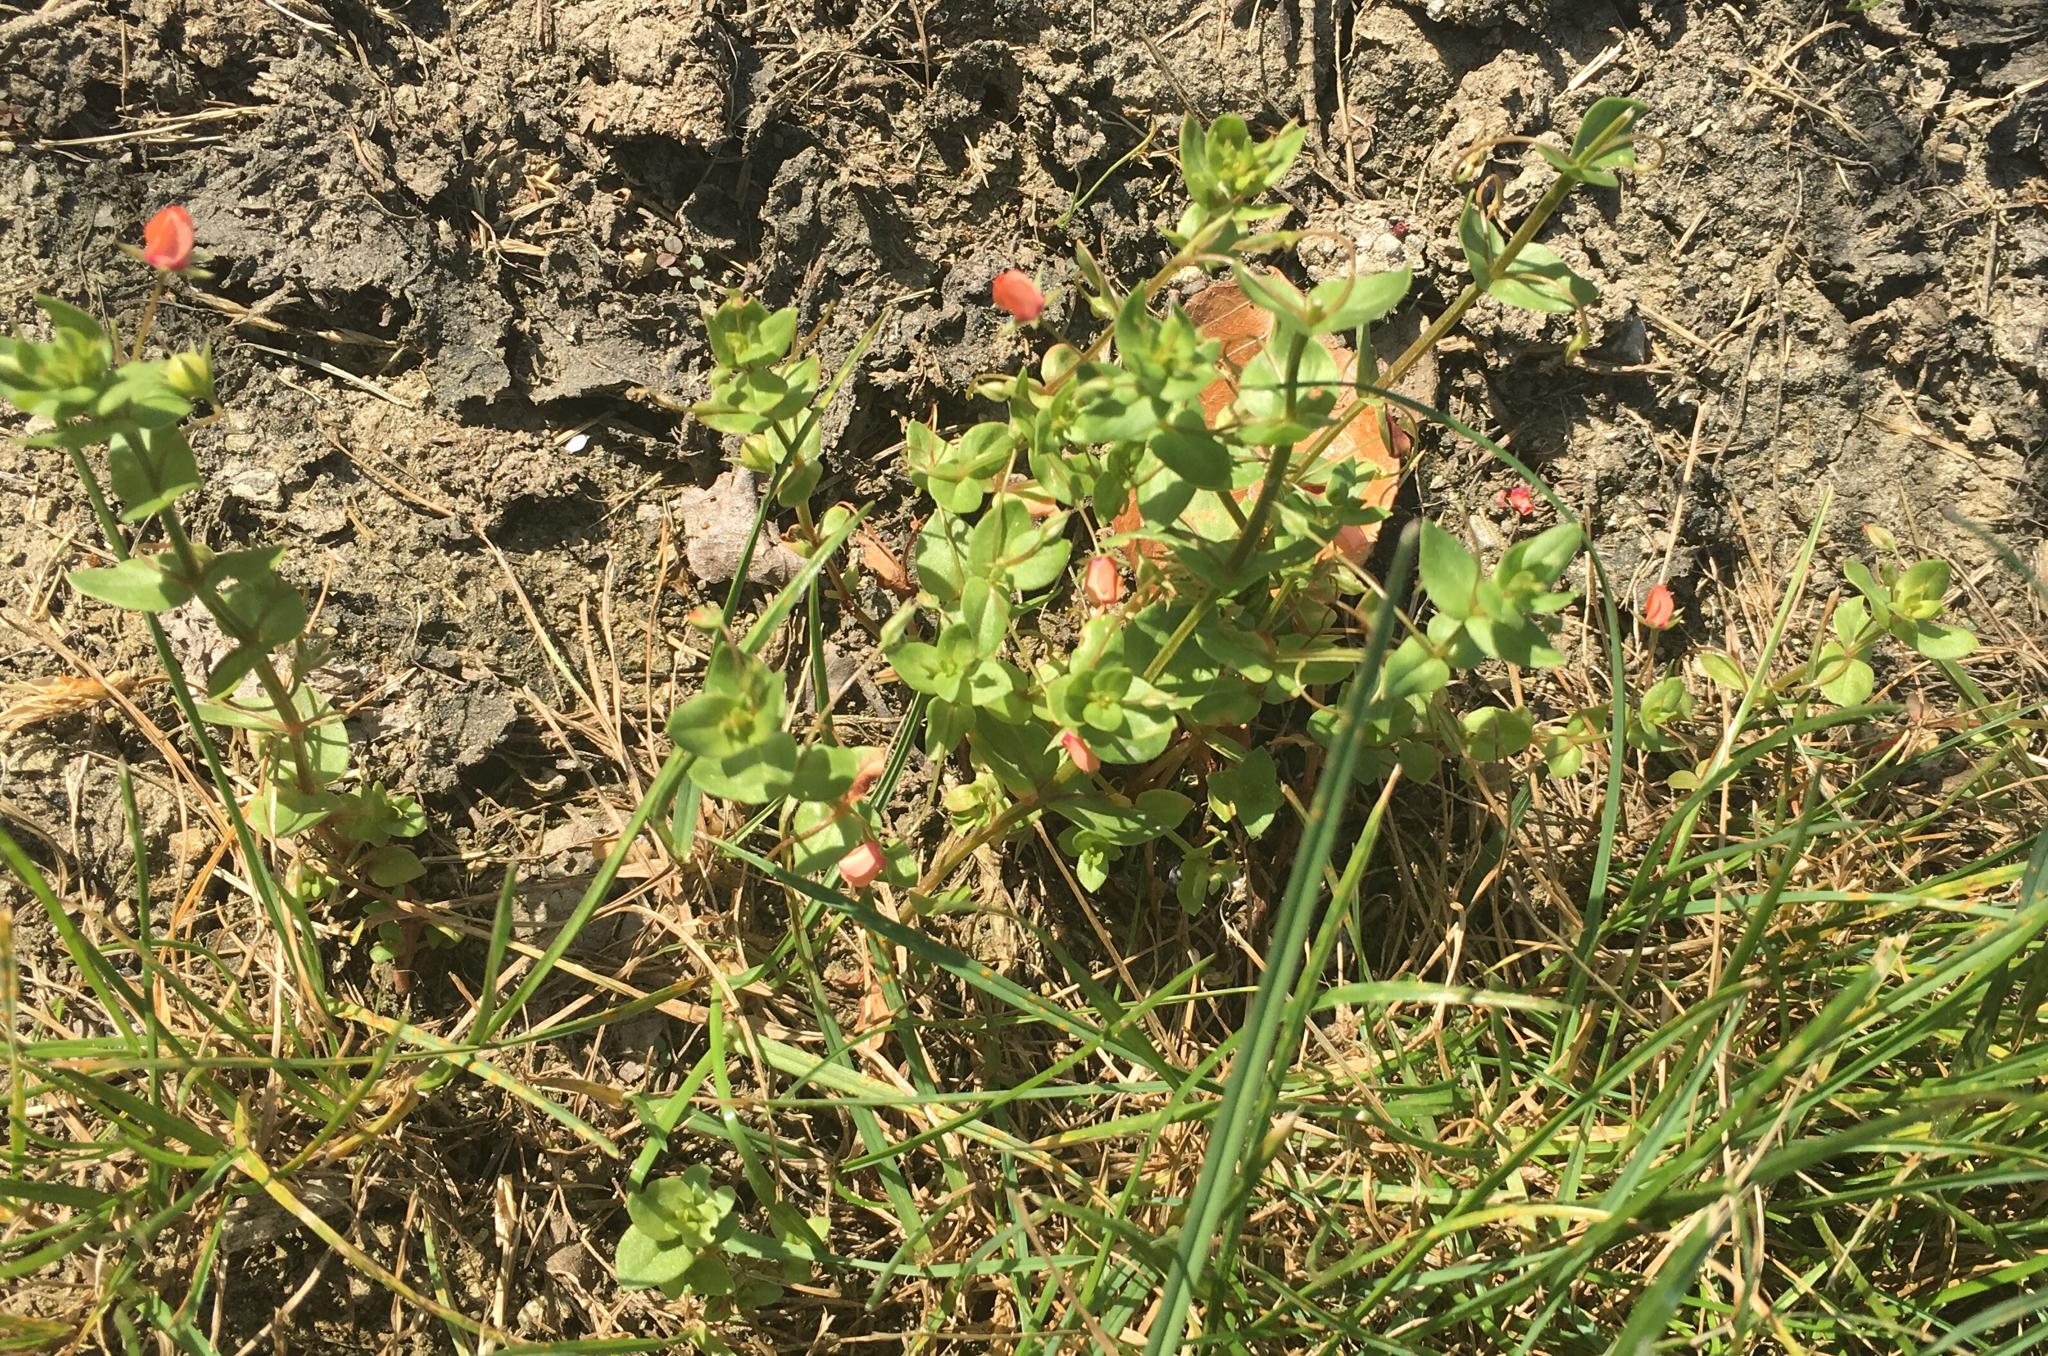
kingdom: Plantae
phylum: Tracheophyta
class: Magnoliopsida
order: Ericales
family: Primulaceae
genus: Lysimachia
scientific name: Lysimachia arvensis
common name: Scarlet pimpernel
